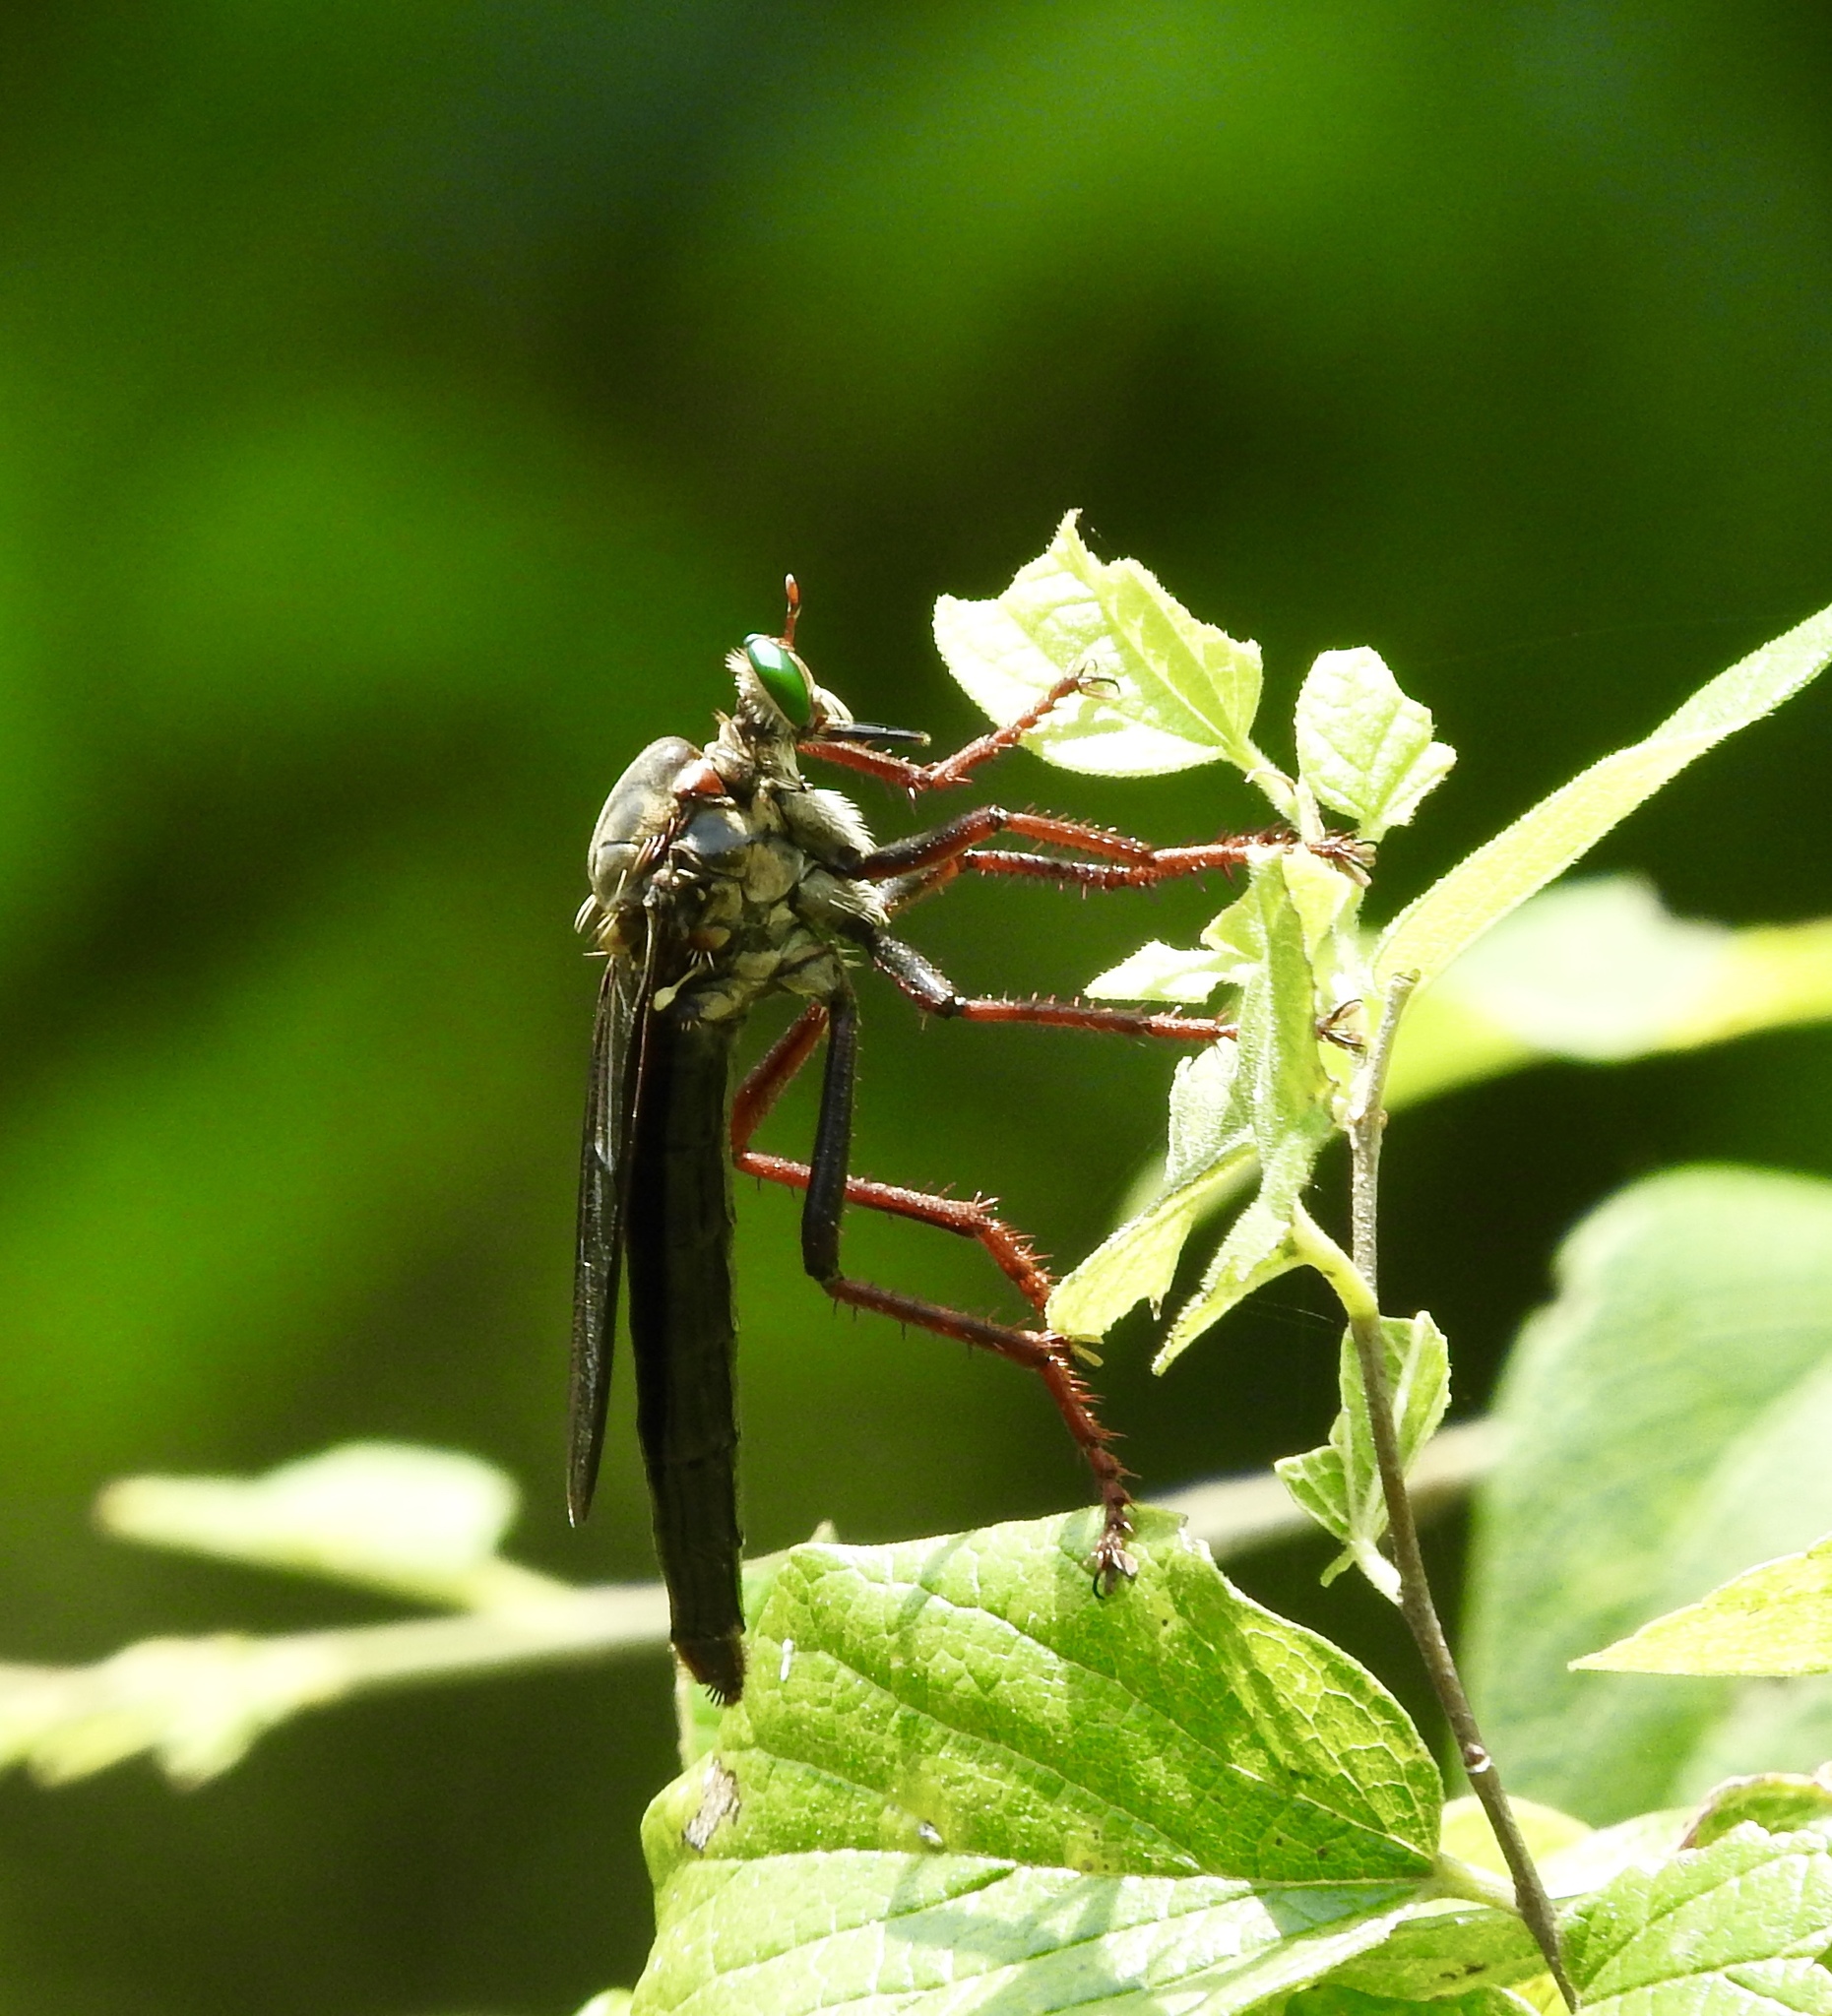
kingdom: Animalia
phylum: Arthropoda
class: Insecta
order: Diptera
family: Asilidae
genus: Microstylum
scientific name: Microstylum morosum
